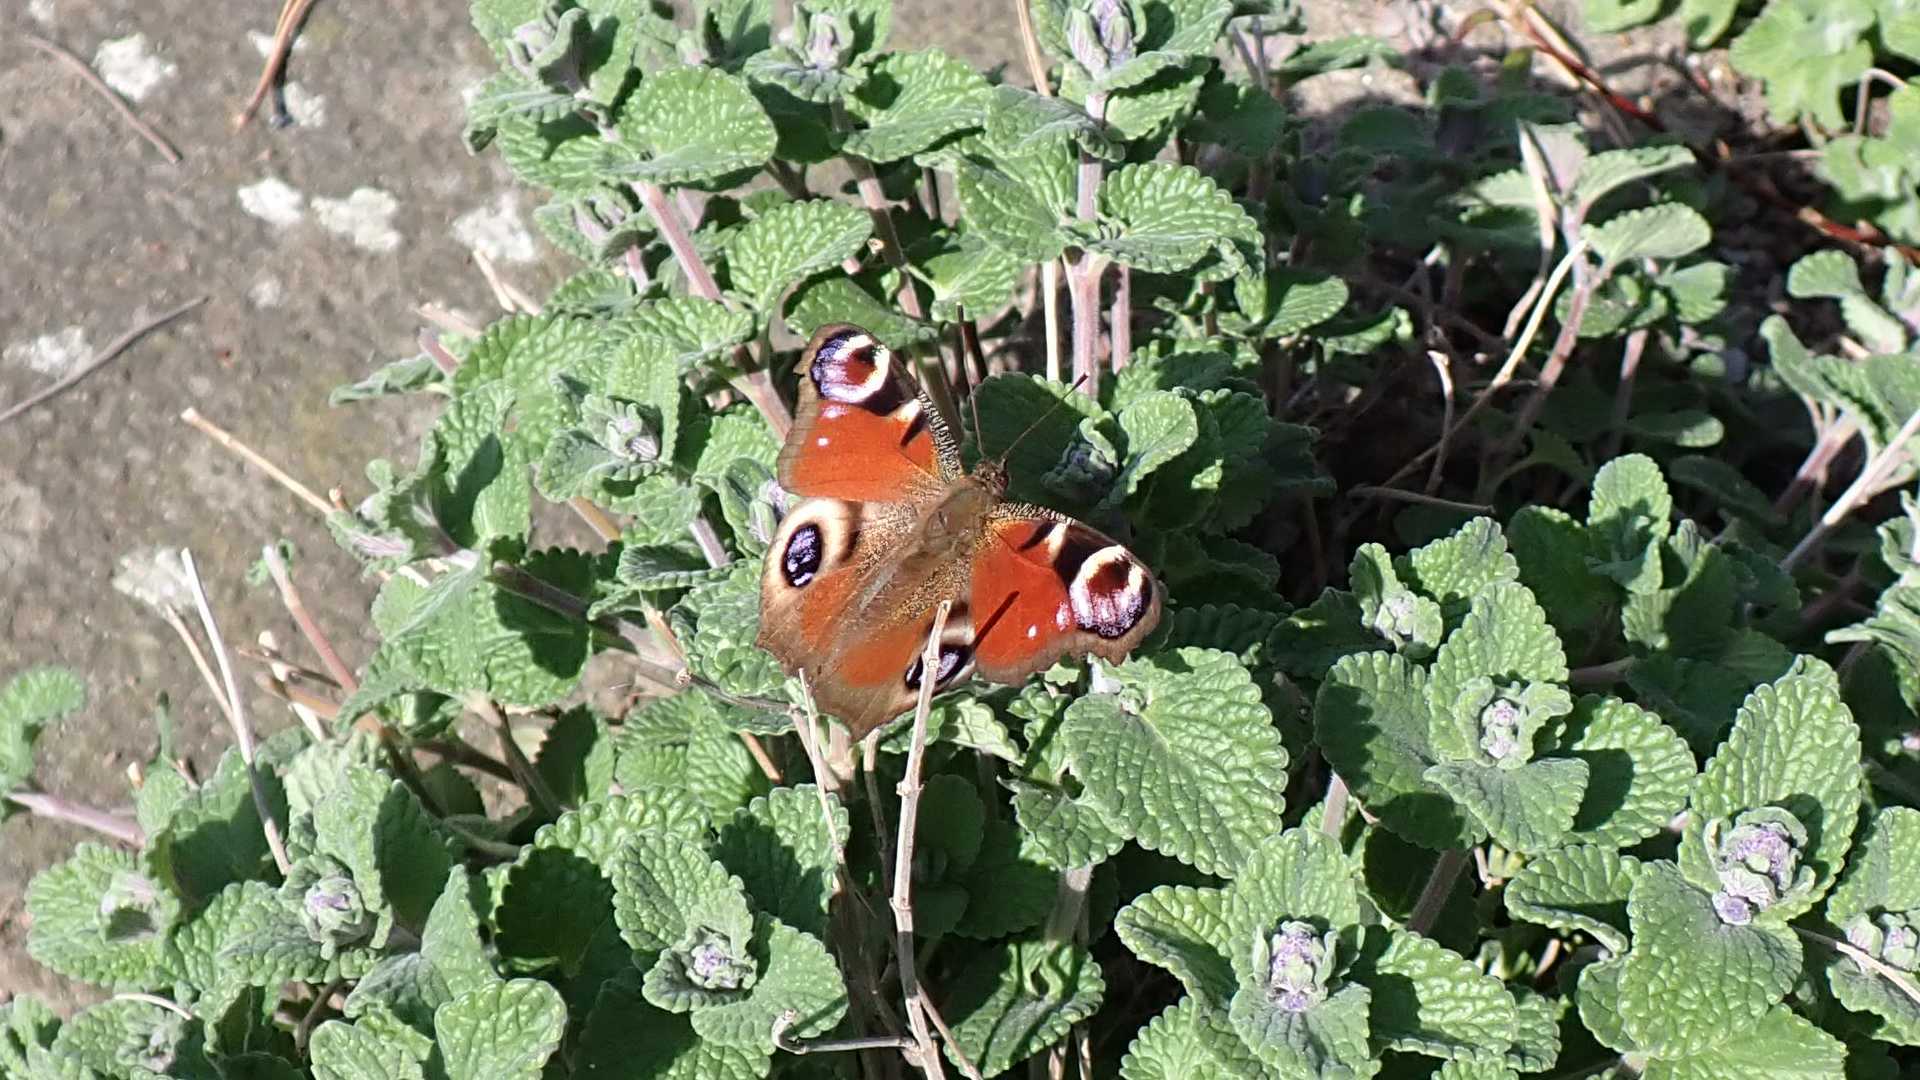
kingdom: Animalia
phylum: Arthropoda
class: Insecta
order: Lepidoptera
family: Nymphalidae
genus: Aglais
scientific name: Aglais io
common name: Peacock
